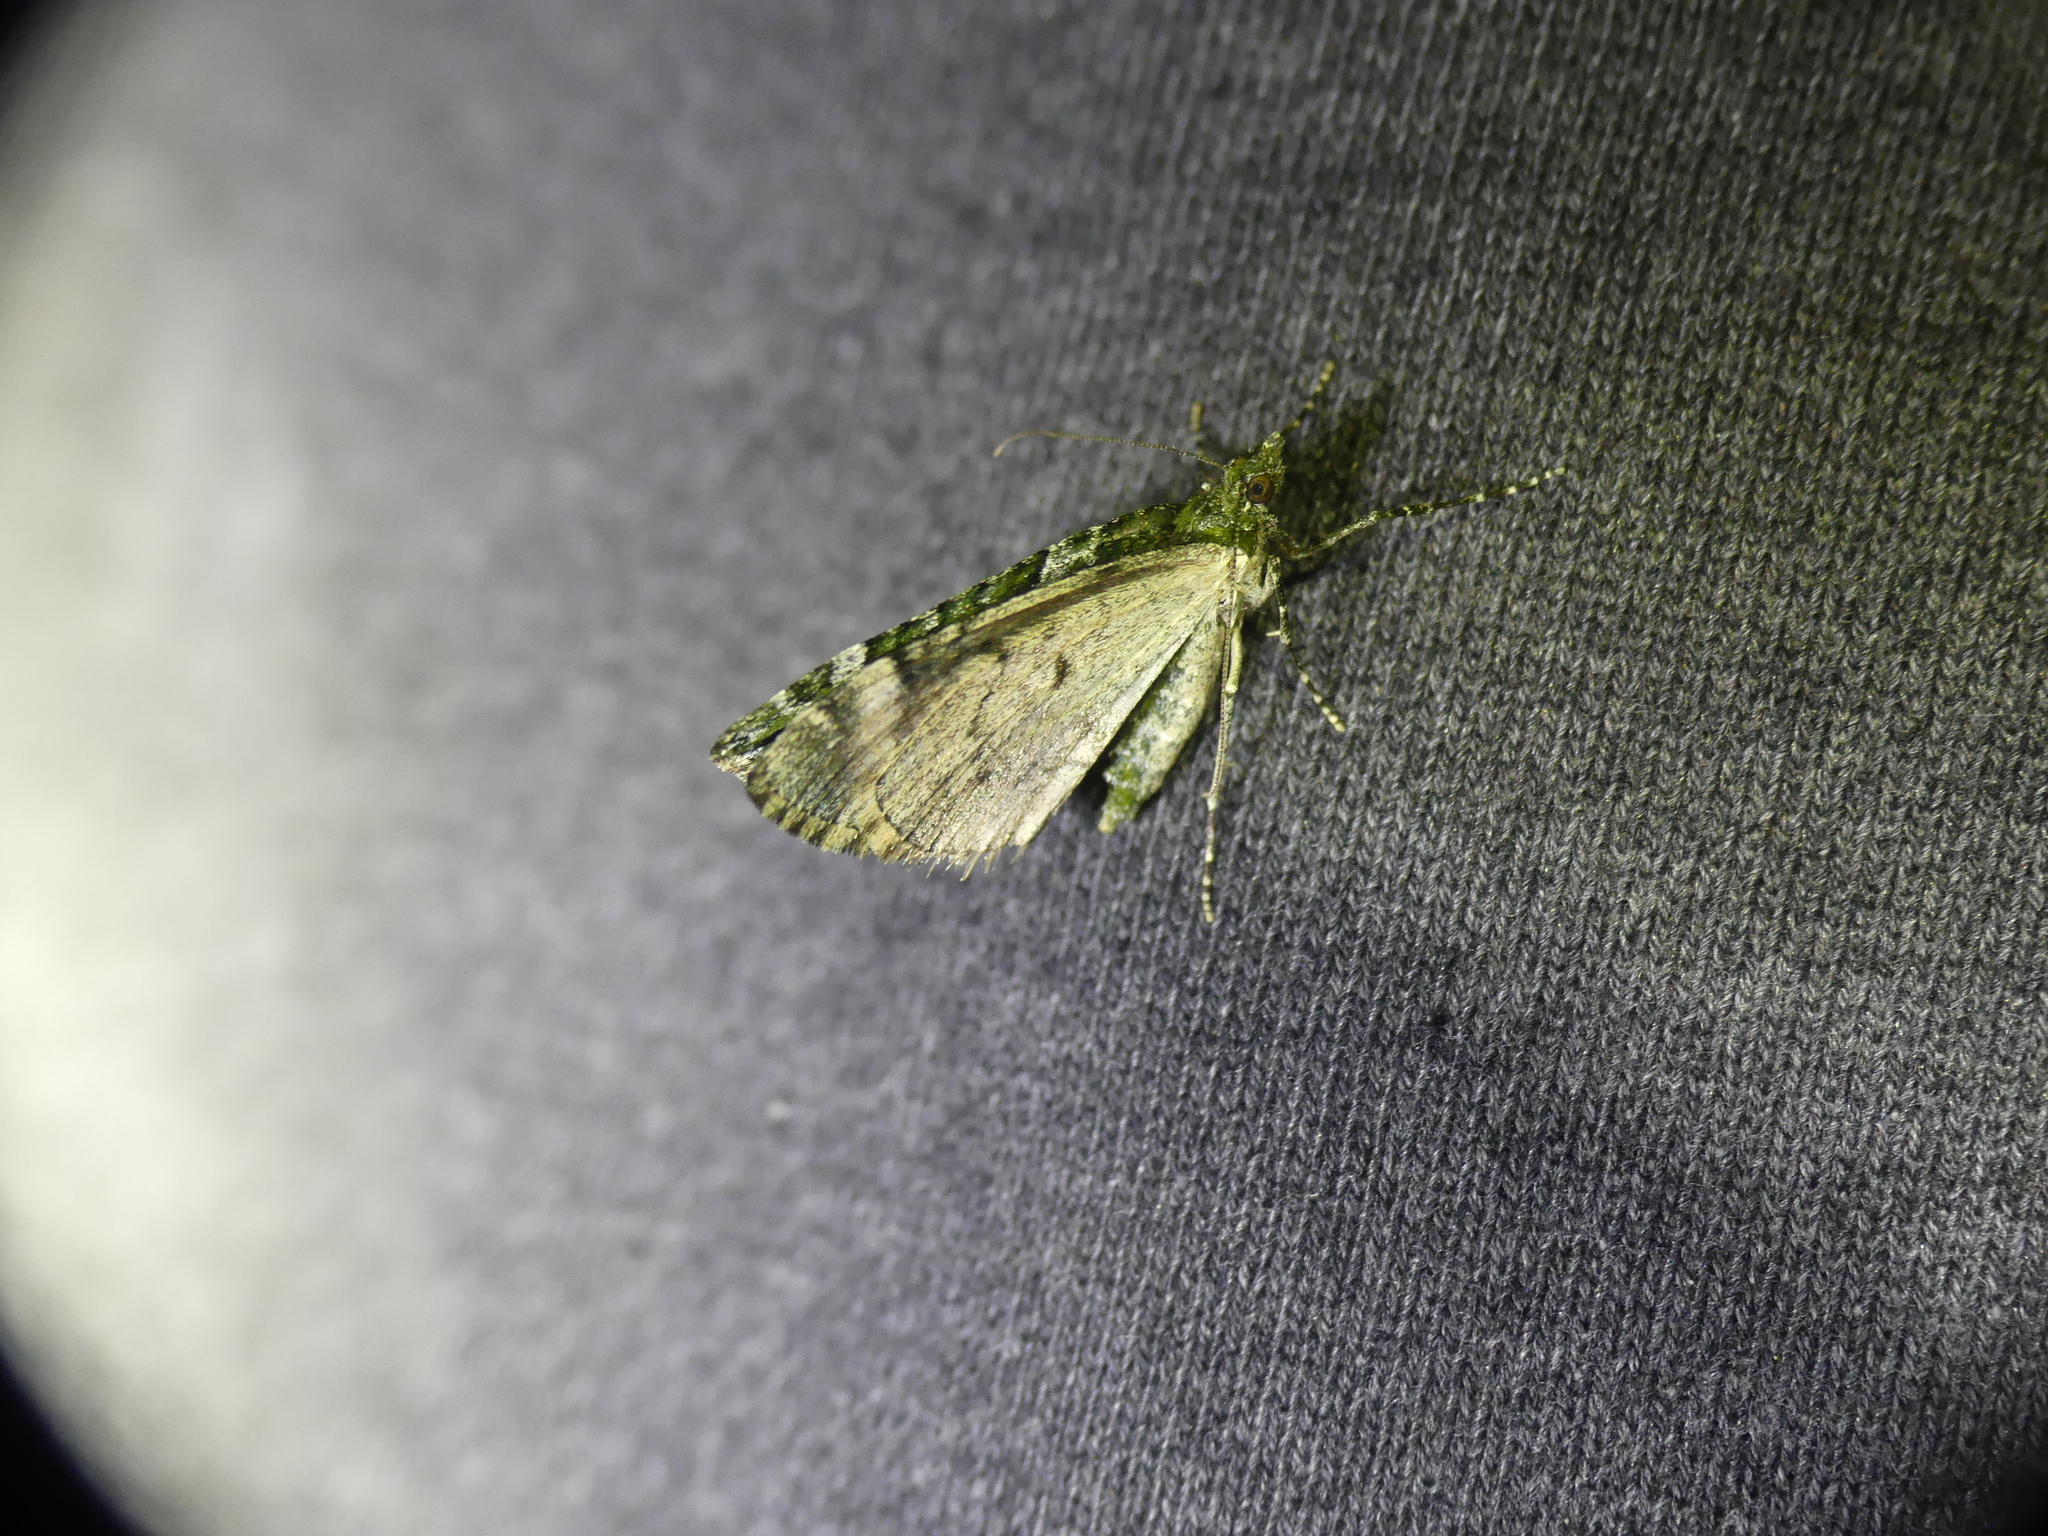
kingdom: Animalia
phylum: Arthropoda
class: Insecta
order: Lepidoptera
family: Geometridae
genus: Chloroclysta
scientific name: Chloroclysta siterata
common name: Red-green carpet
